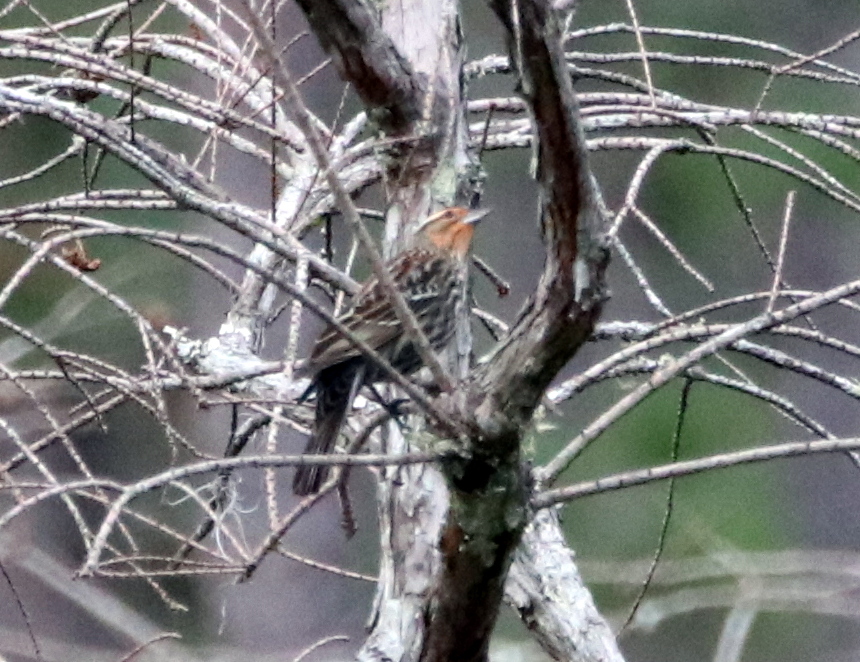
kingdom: Animalia
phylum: Chordata
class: Aves
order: Passeriformes
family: Icteridae
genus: Agelaius
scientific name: Agelaius phoeniceus
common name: Red-winged blackbird
